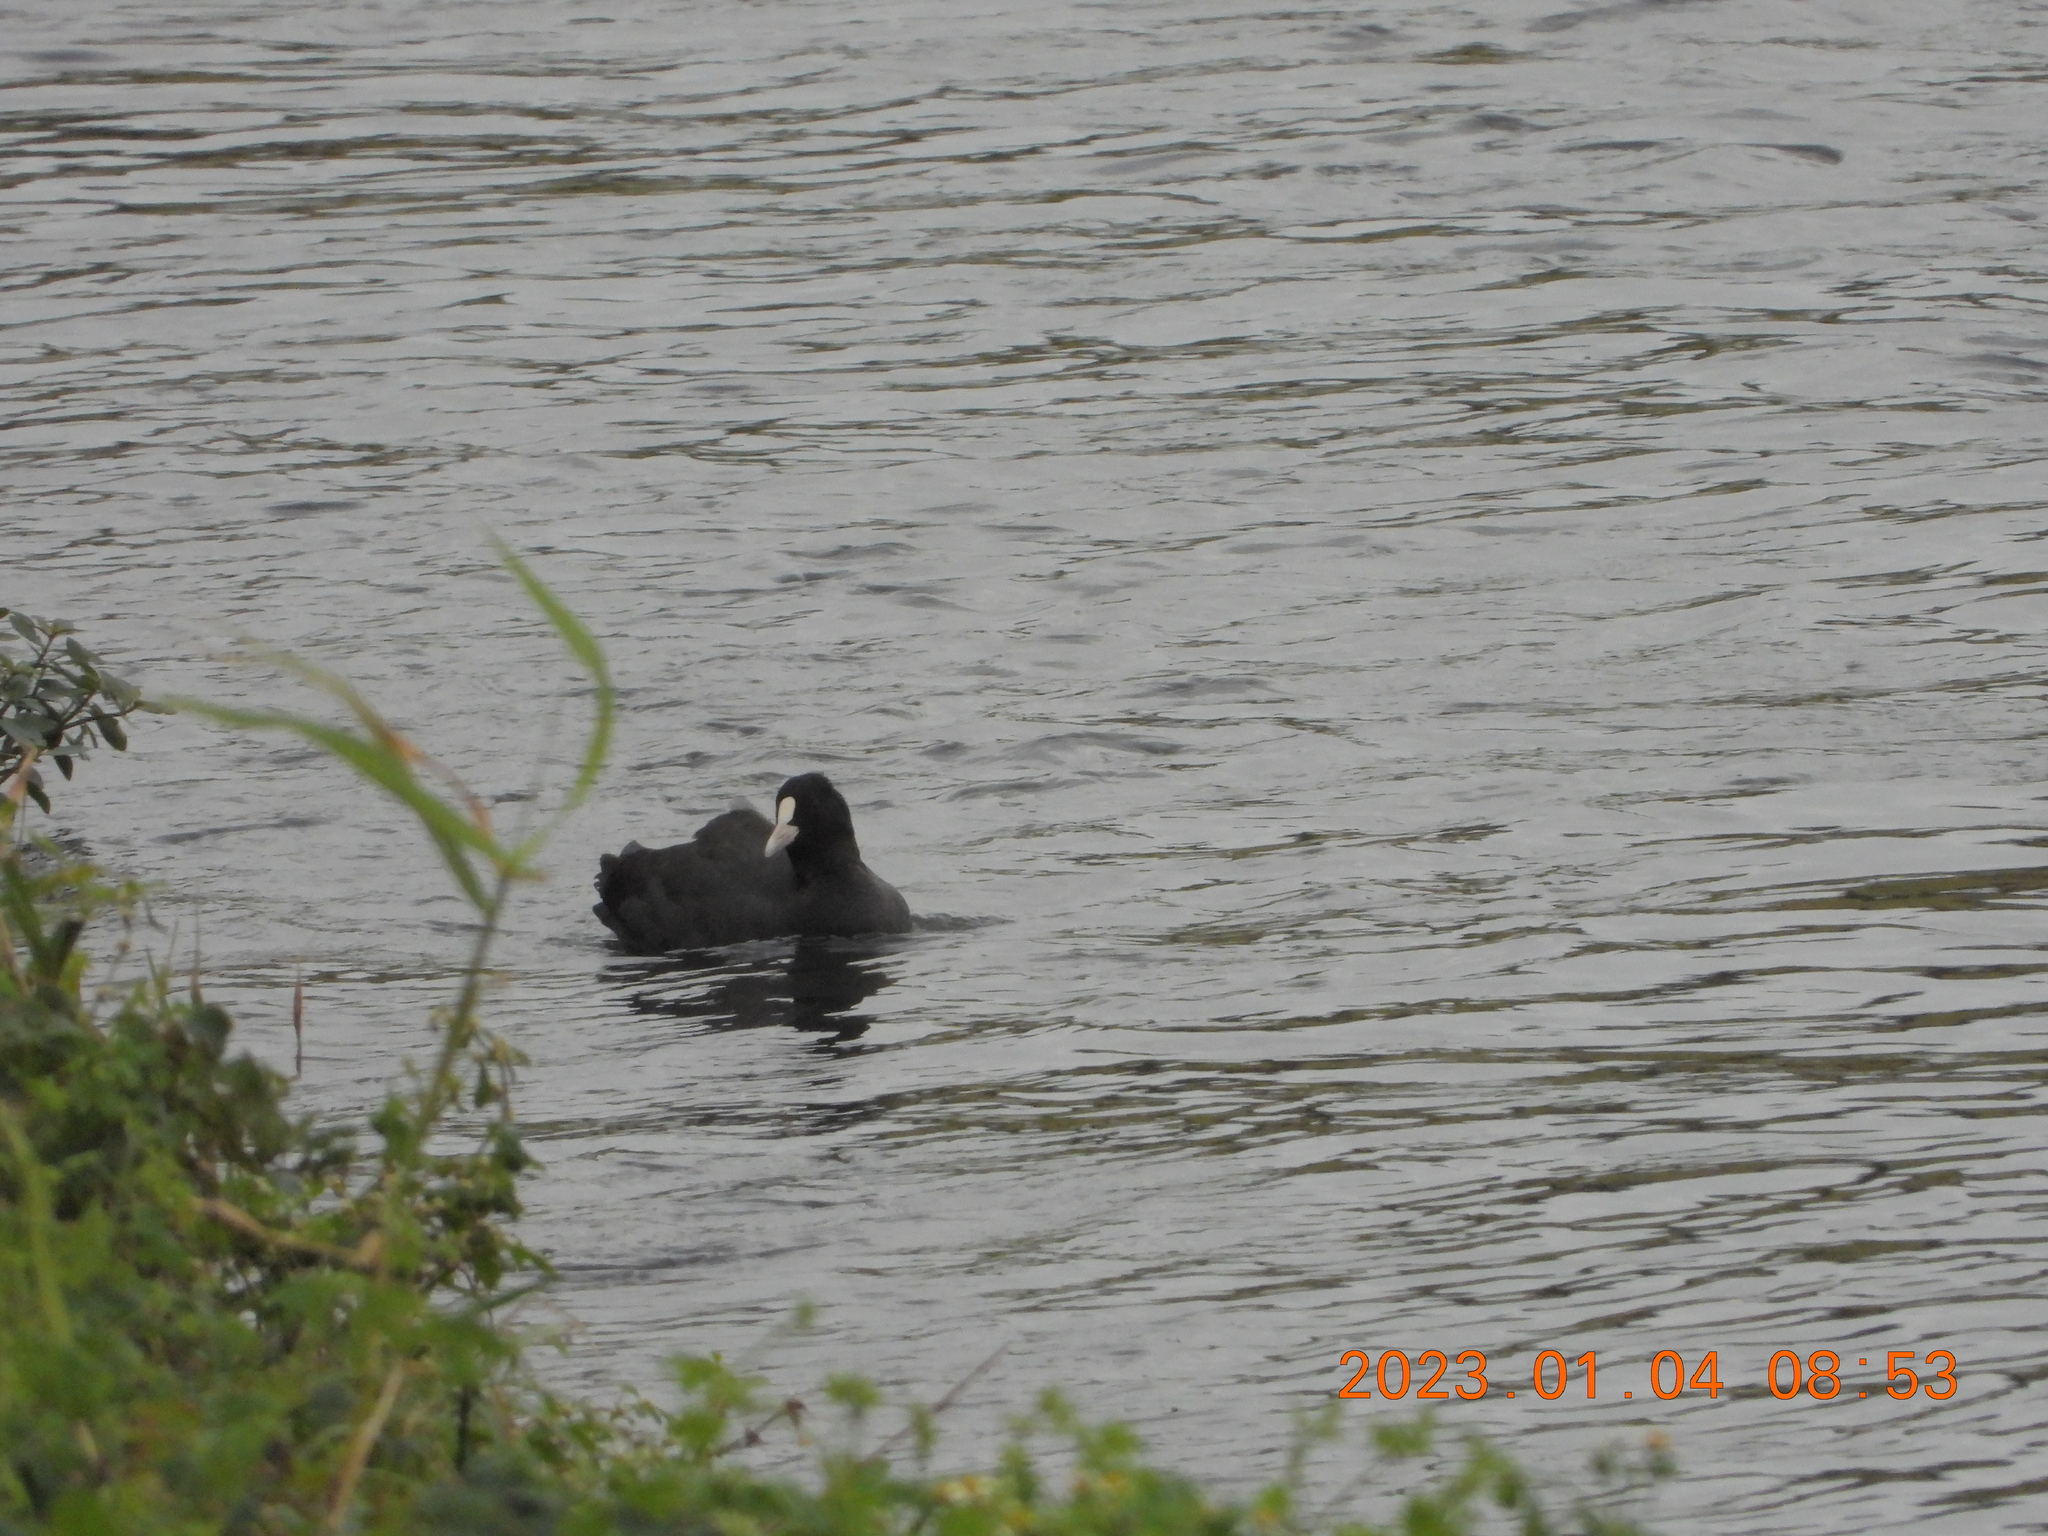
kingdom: Animalia
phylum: Chordata
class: Aves
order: Gruiformes
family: Rallidae
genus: Fulica
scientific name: Fulica atra
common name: Eurasian coot
